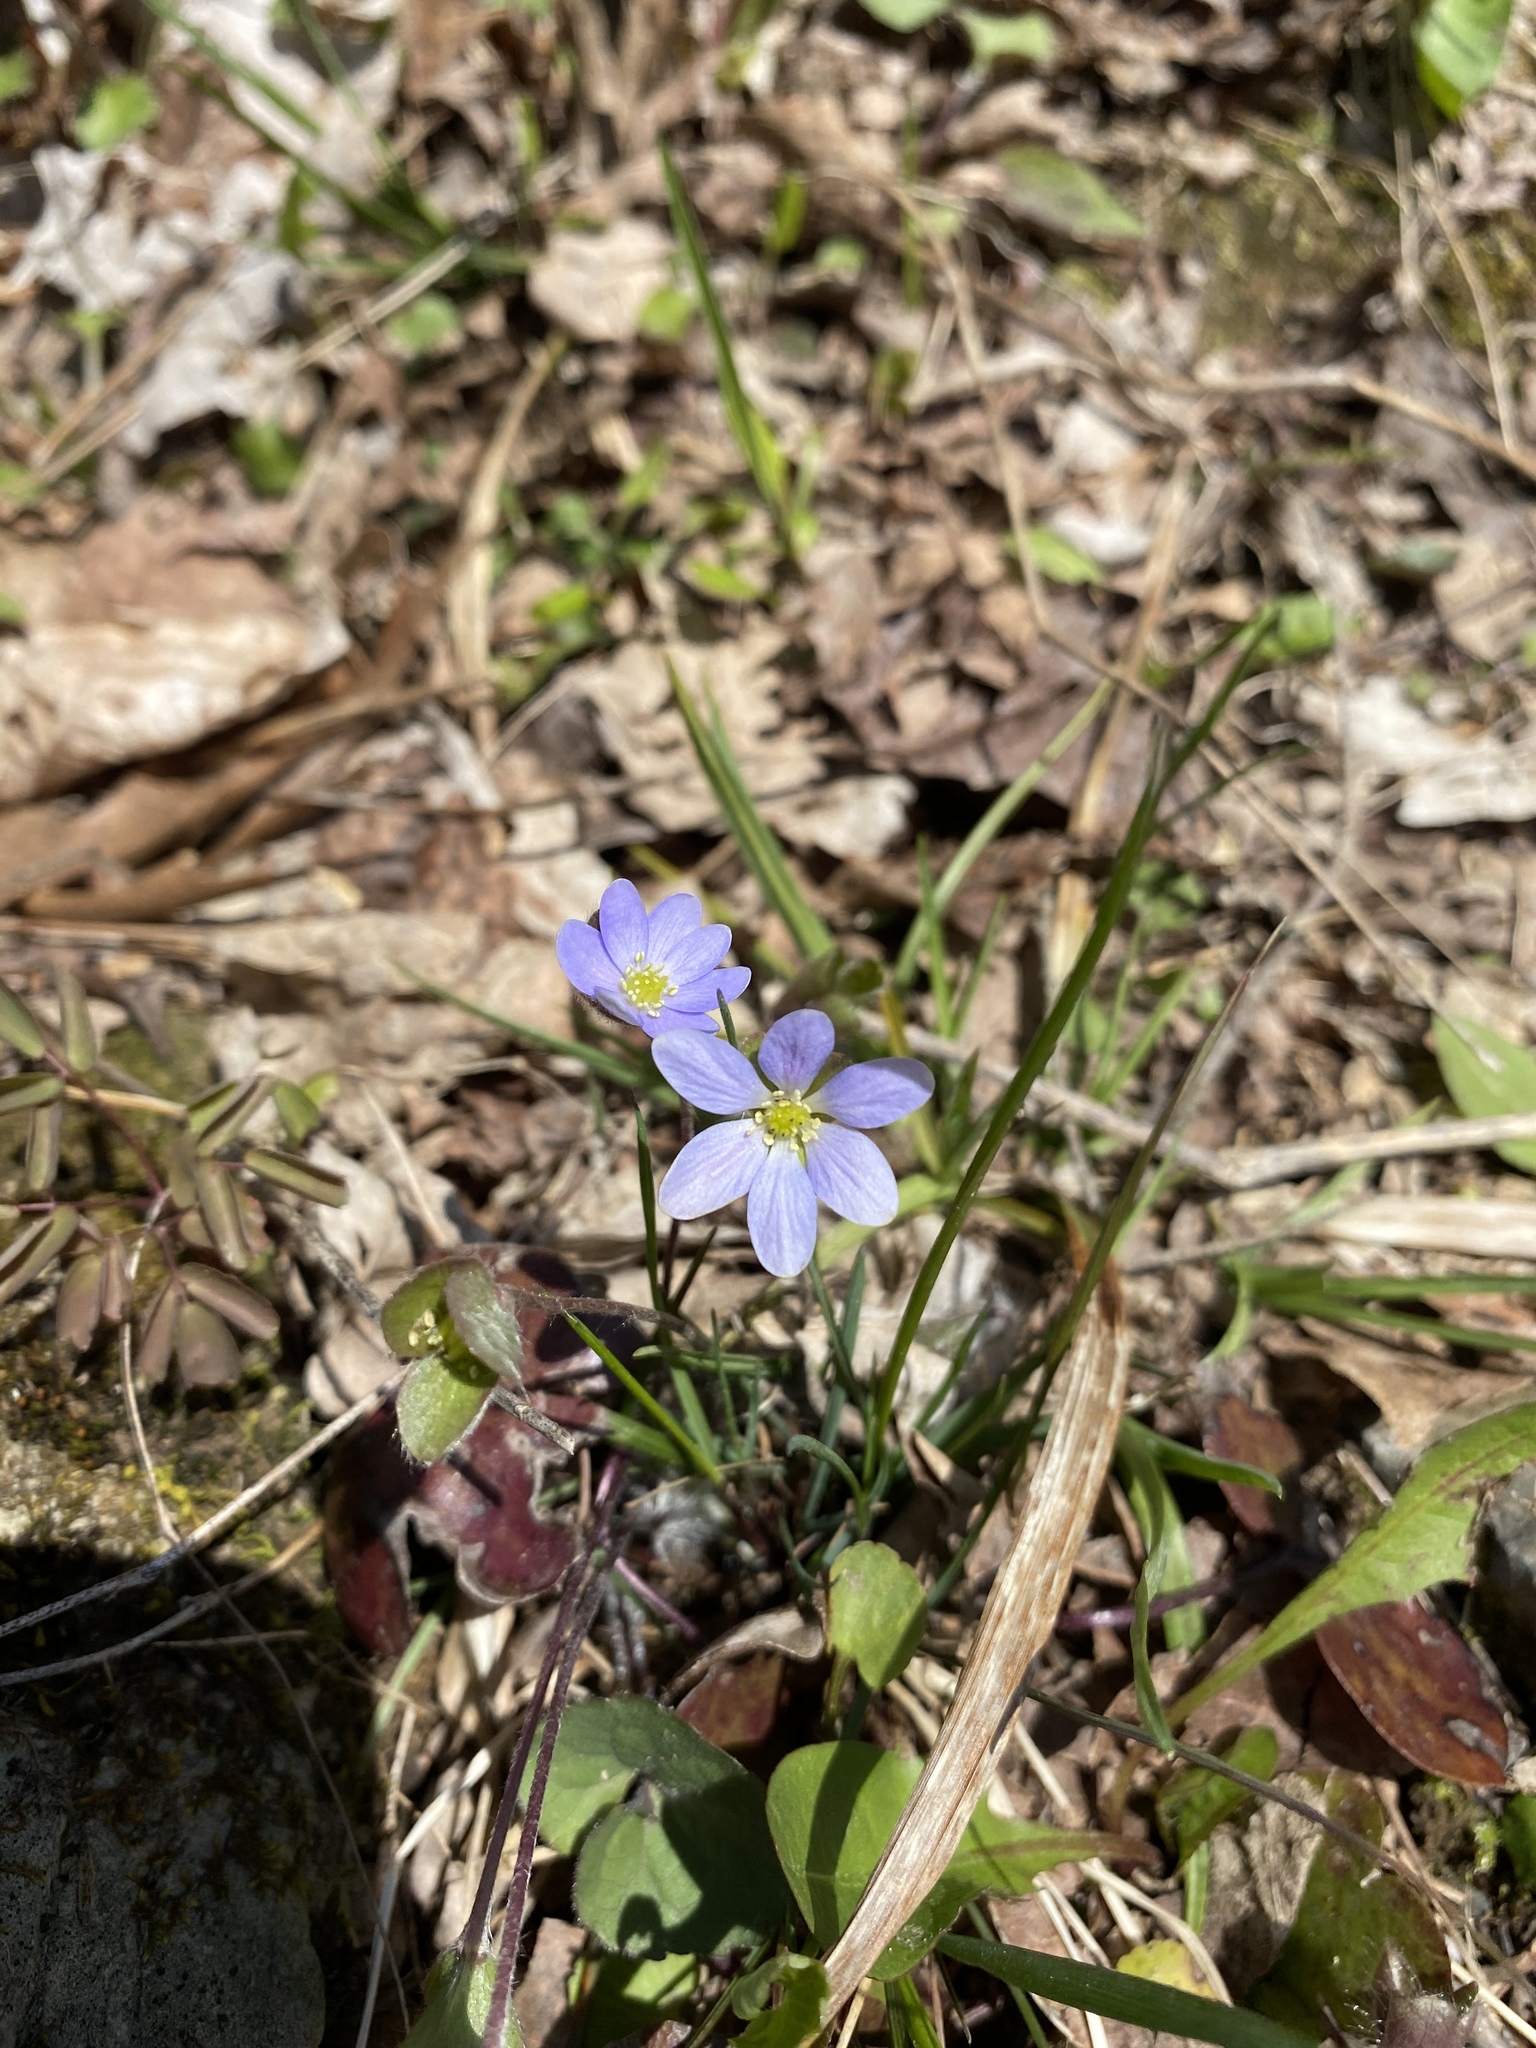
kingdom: Plantae
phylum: Tracheophyta
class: Magnoliopsida
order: Ranunculales
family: Ranunculaceae
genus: Hepatica
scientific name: Hepatica americana
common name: American hepatica
